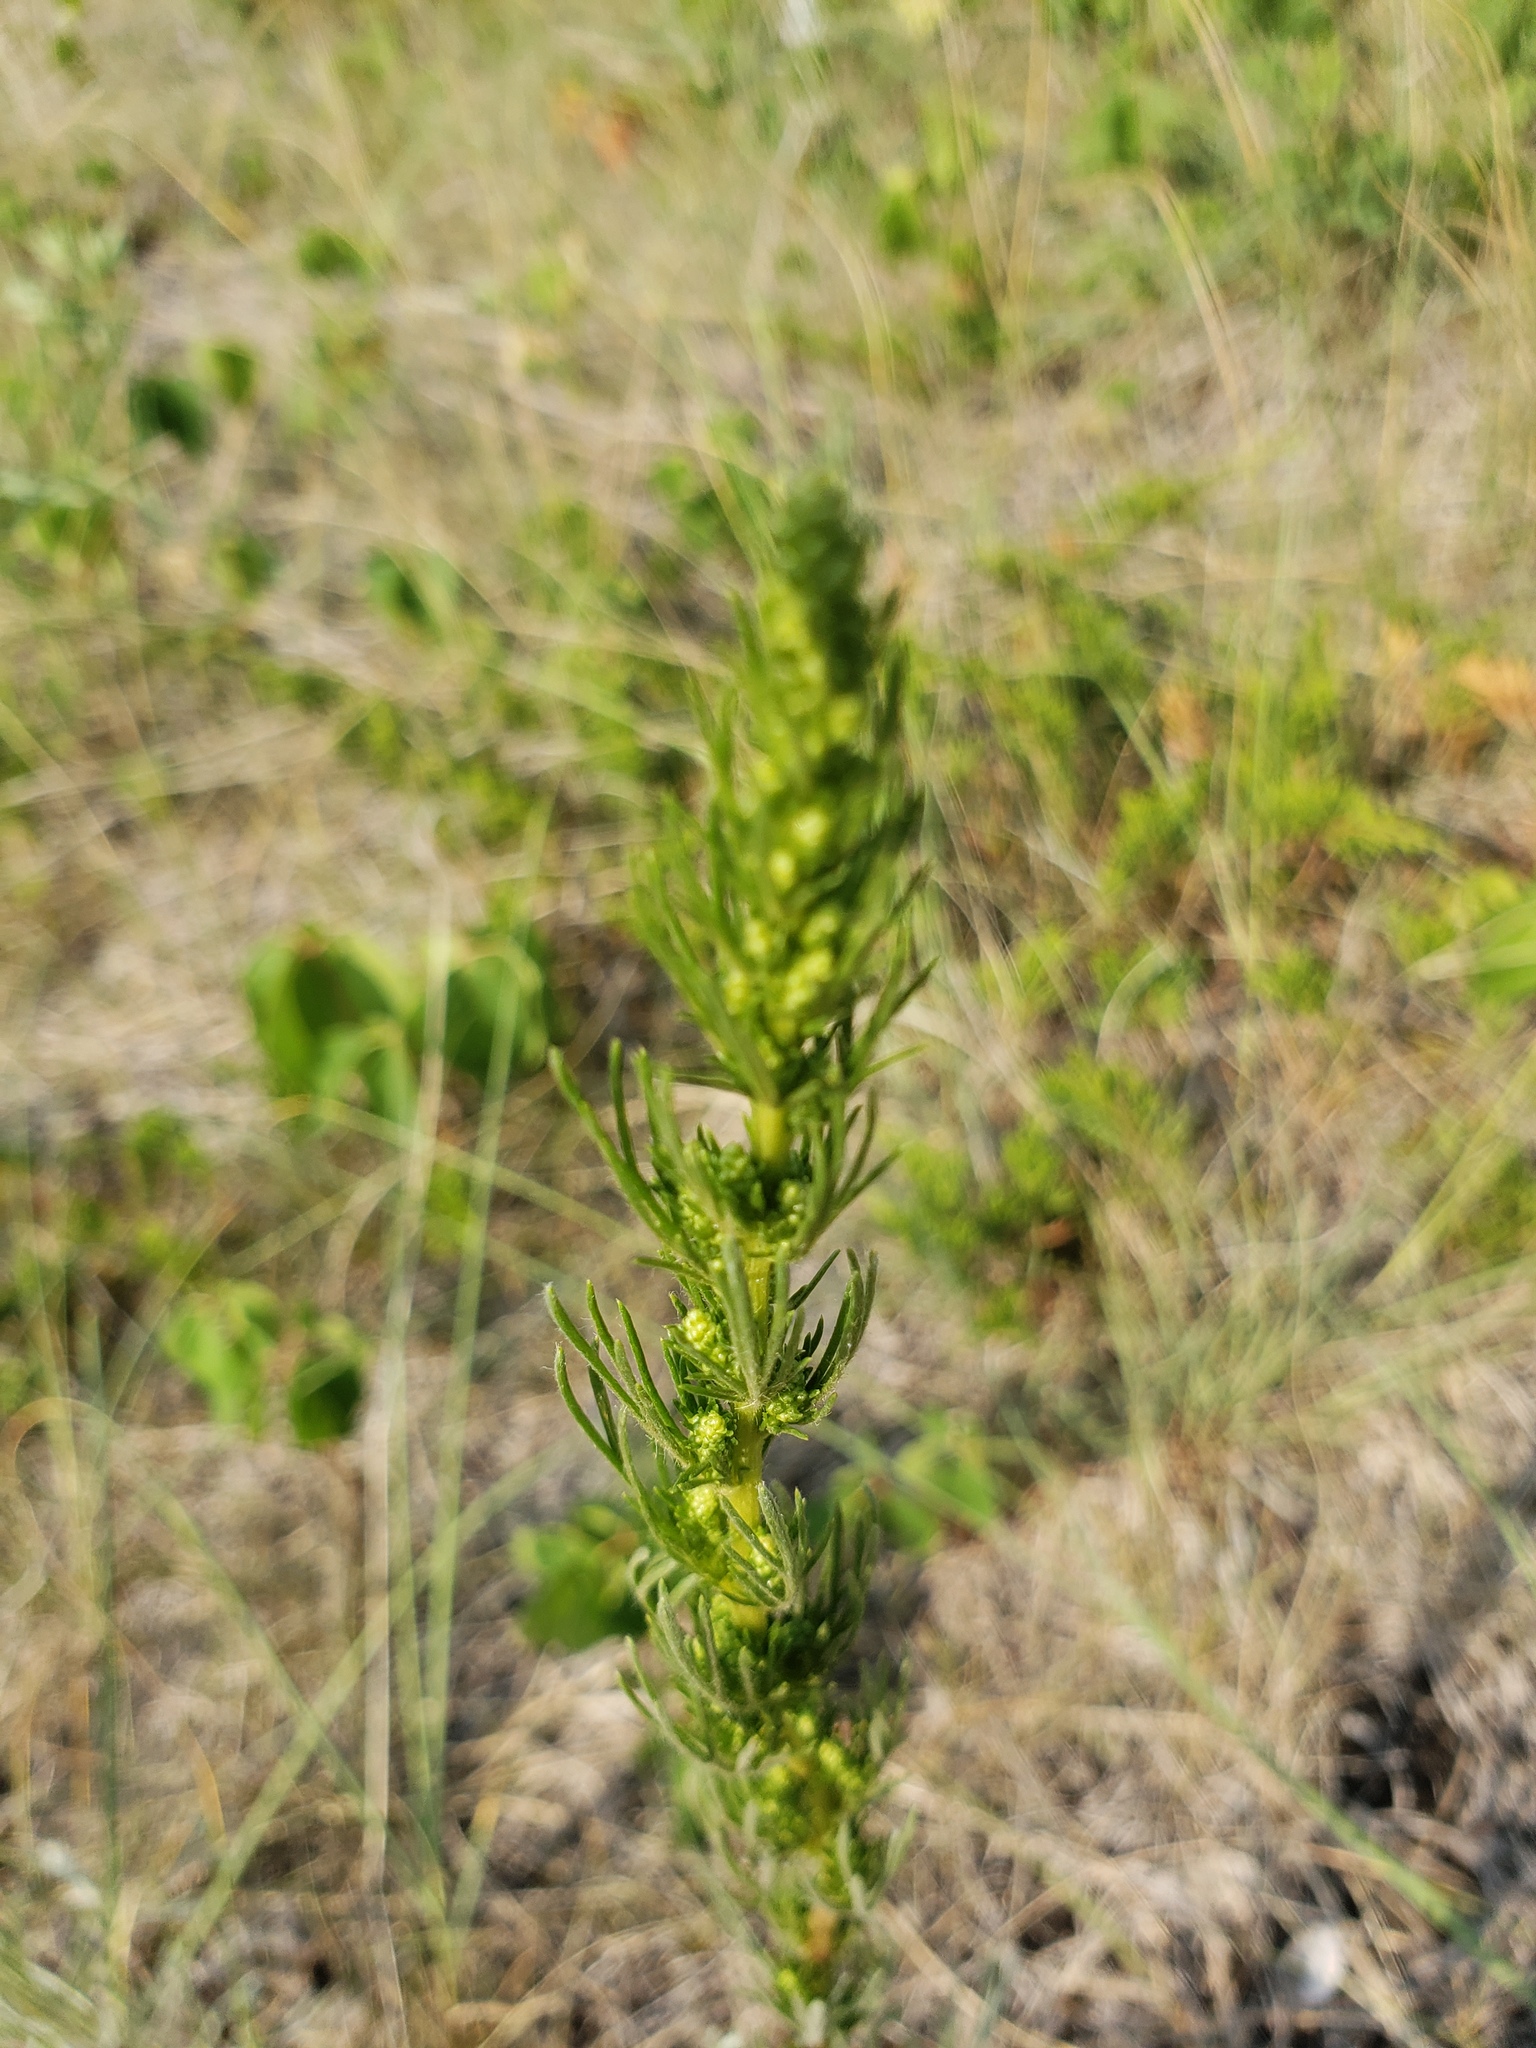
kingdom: Plantae
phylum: Tracheophyta
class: Magnoliopsida
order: Asterales
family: Asteraceae
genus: Artemisia
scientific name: Artemisia campestris
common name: Field wormwood
